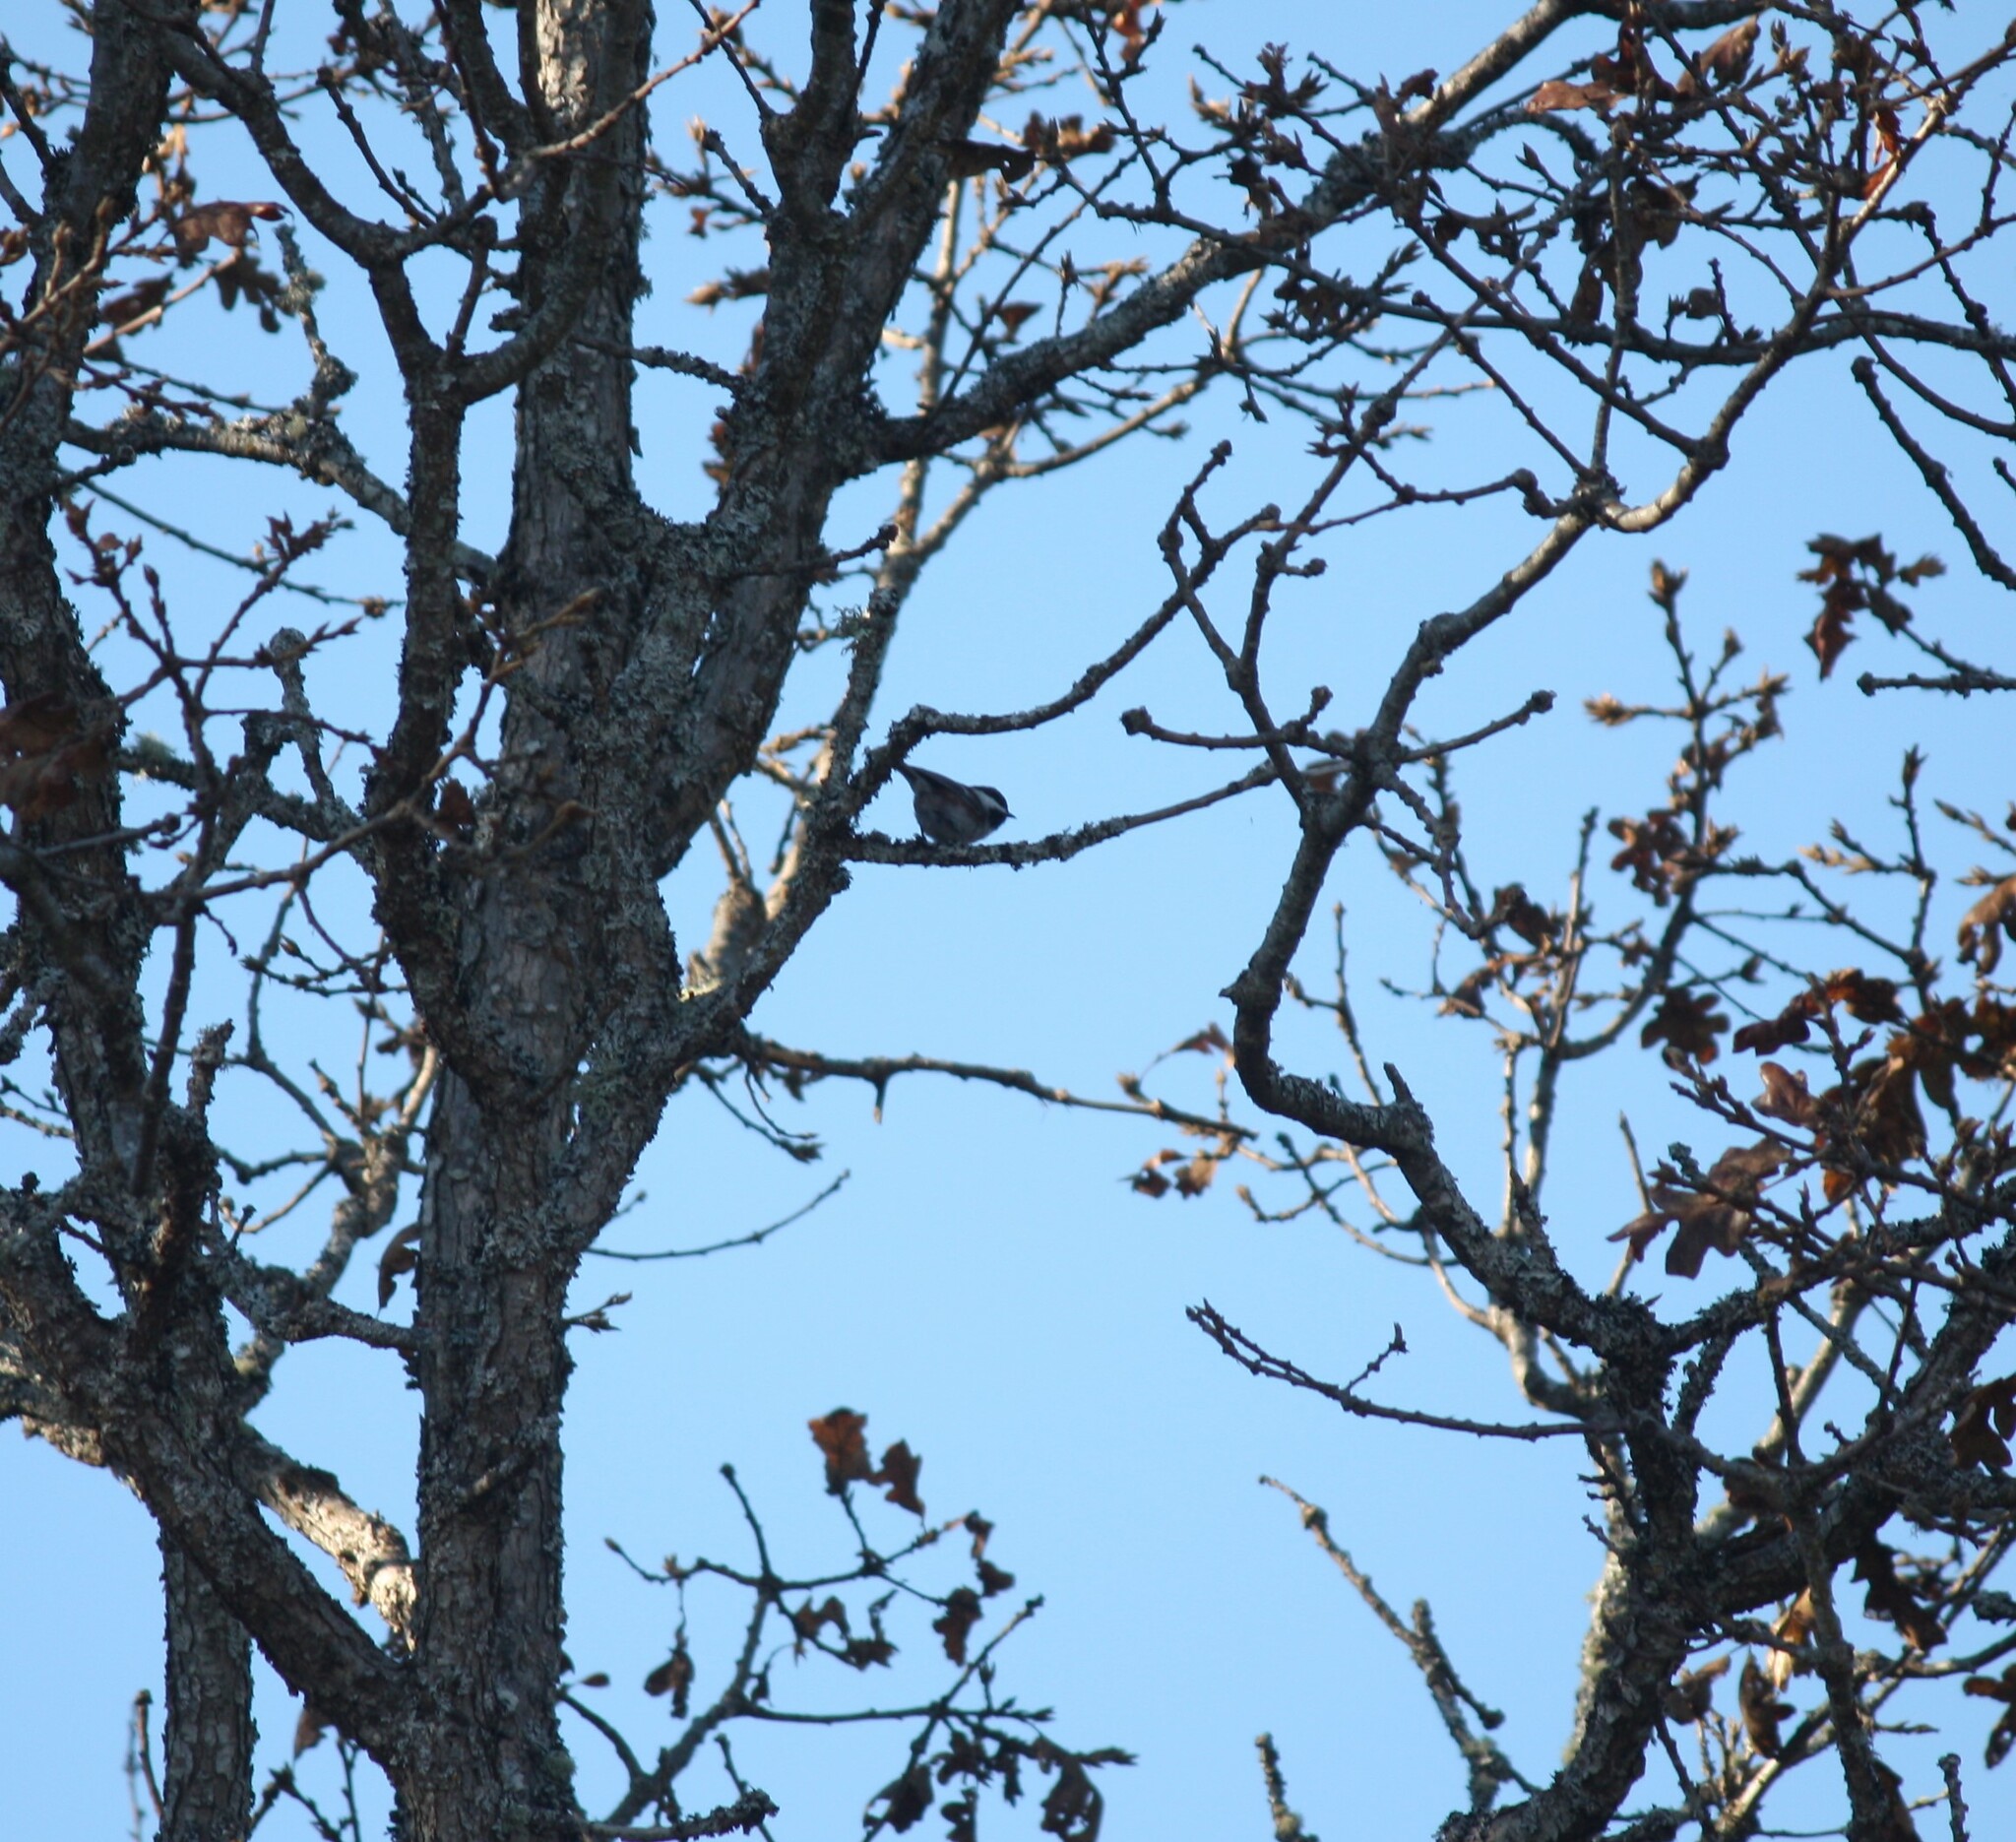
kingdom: Animalia
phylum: Chordata
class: Aves
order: Passeriformes
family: Paridae
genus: Poecile
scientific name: Poecile rufescens
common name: Chestnut-backed chickadee
